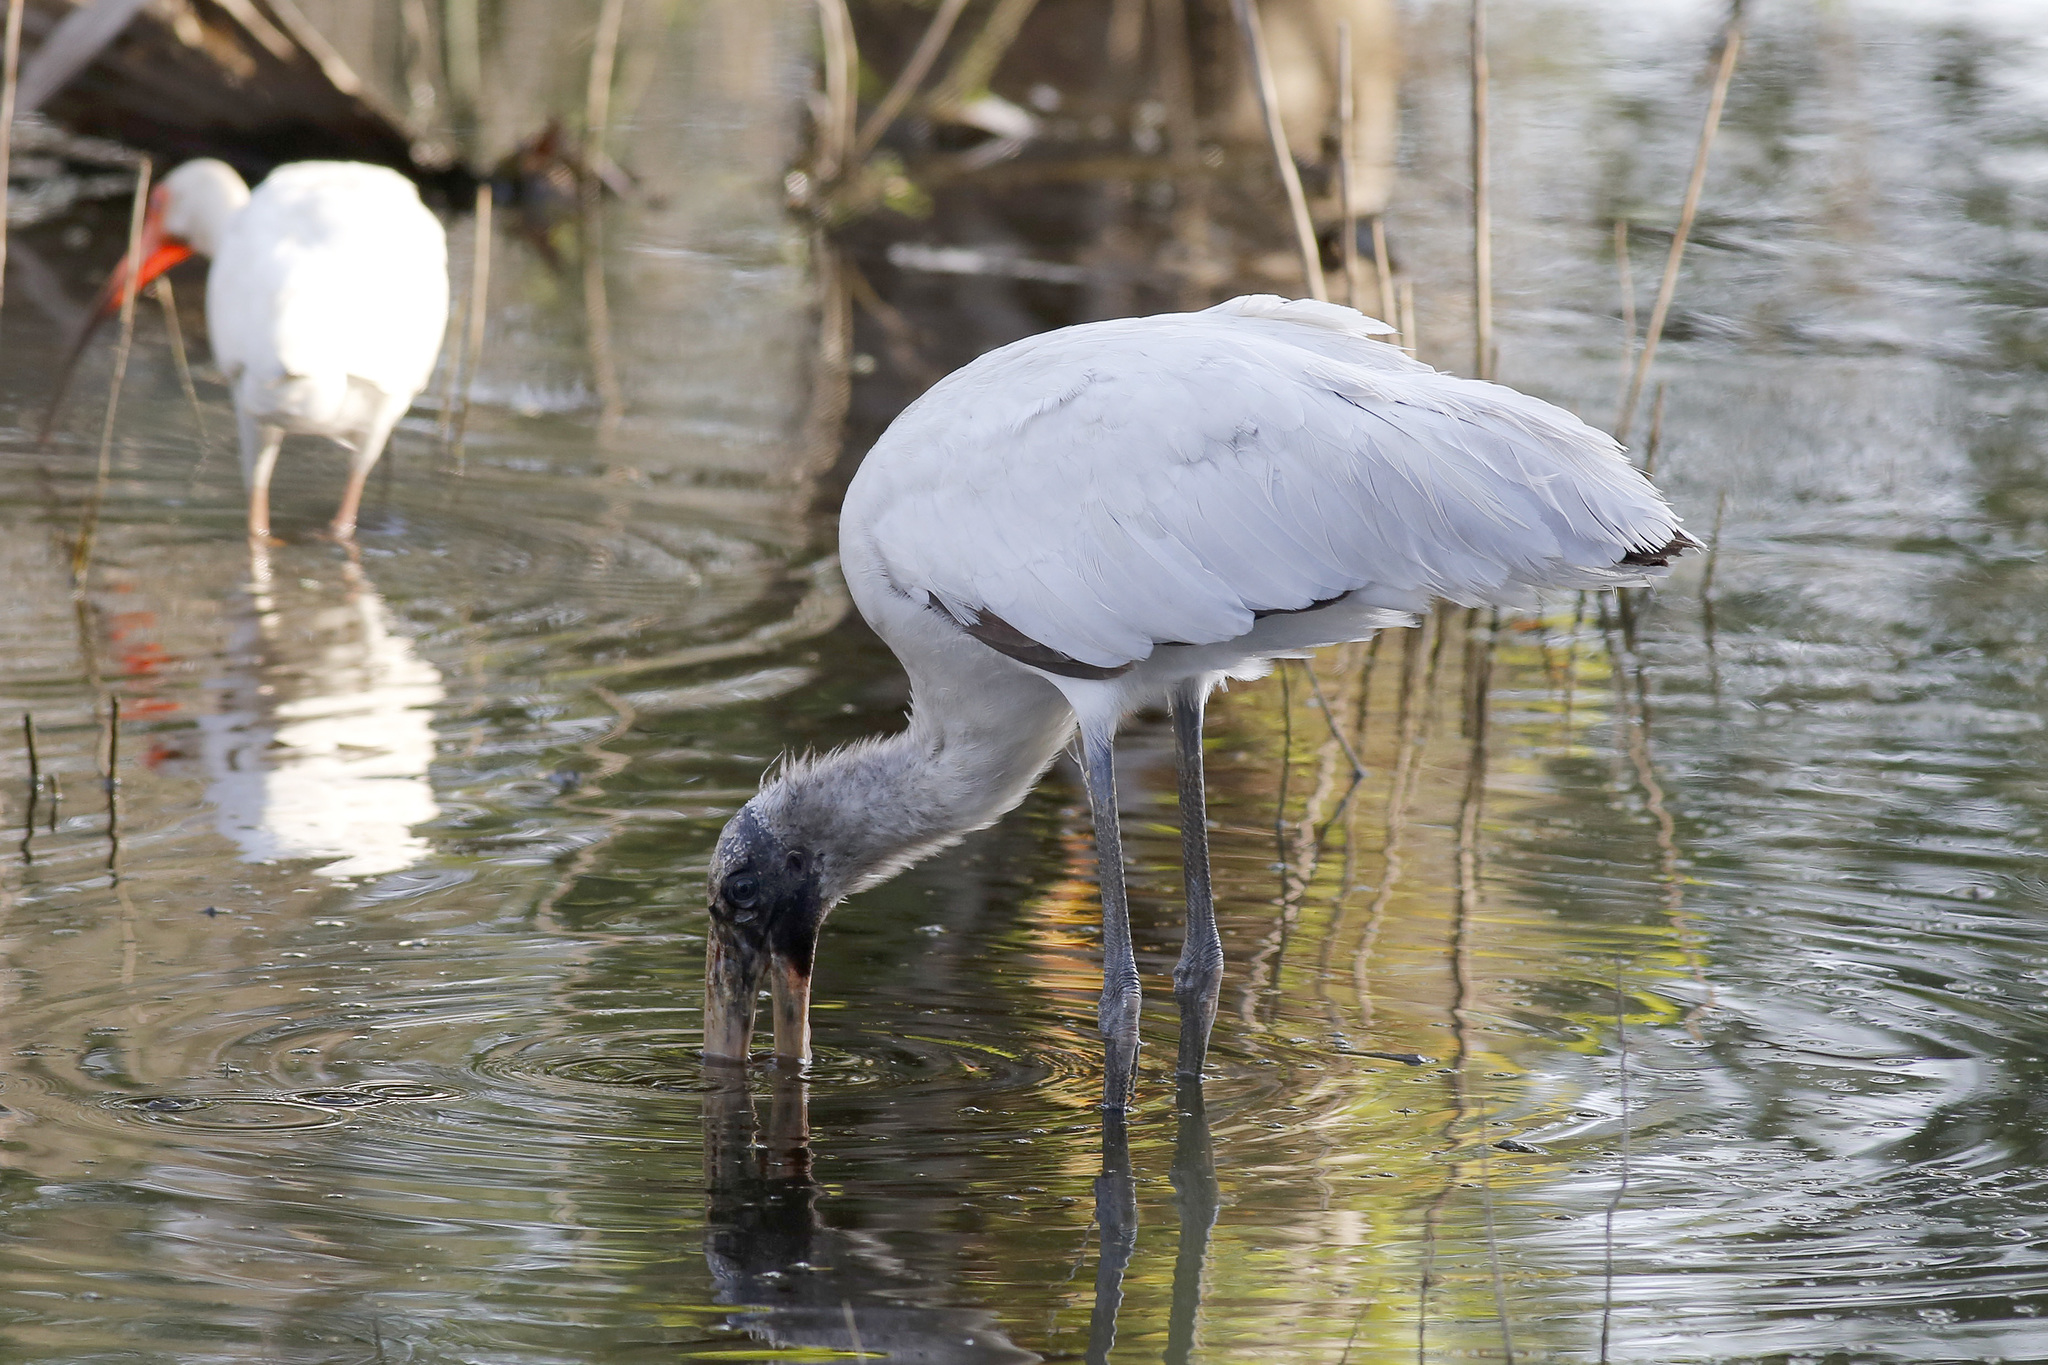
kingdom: Animalia
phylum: Chordata
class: Aves
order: Ciconiiformes
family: Ciconiidae
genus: Mycteria
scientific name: Mycteria americana
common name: Wood stork
